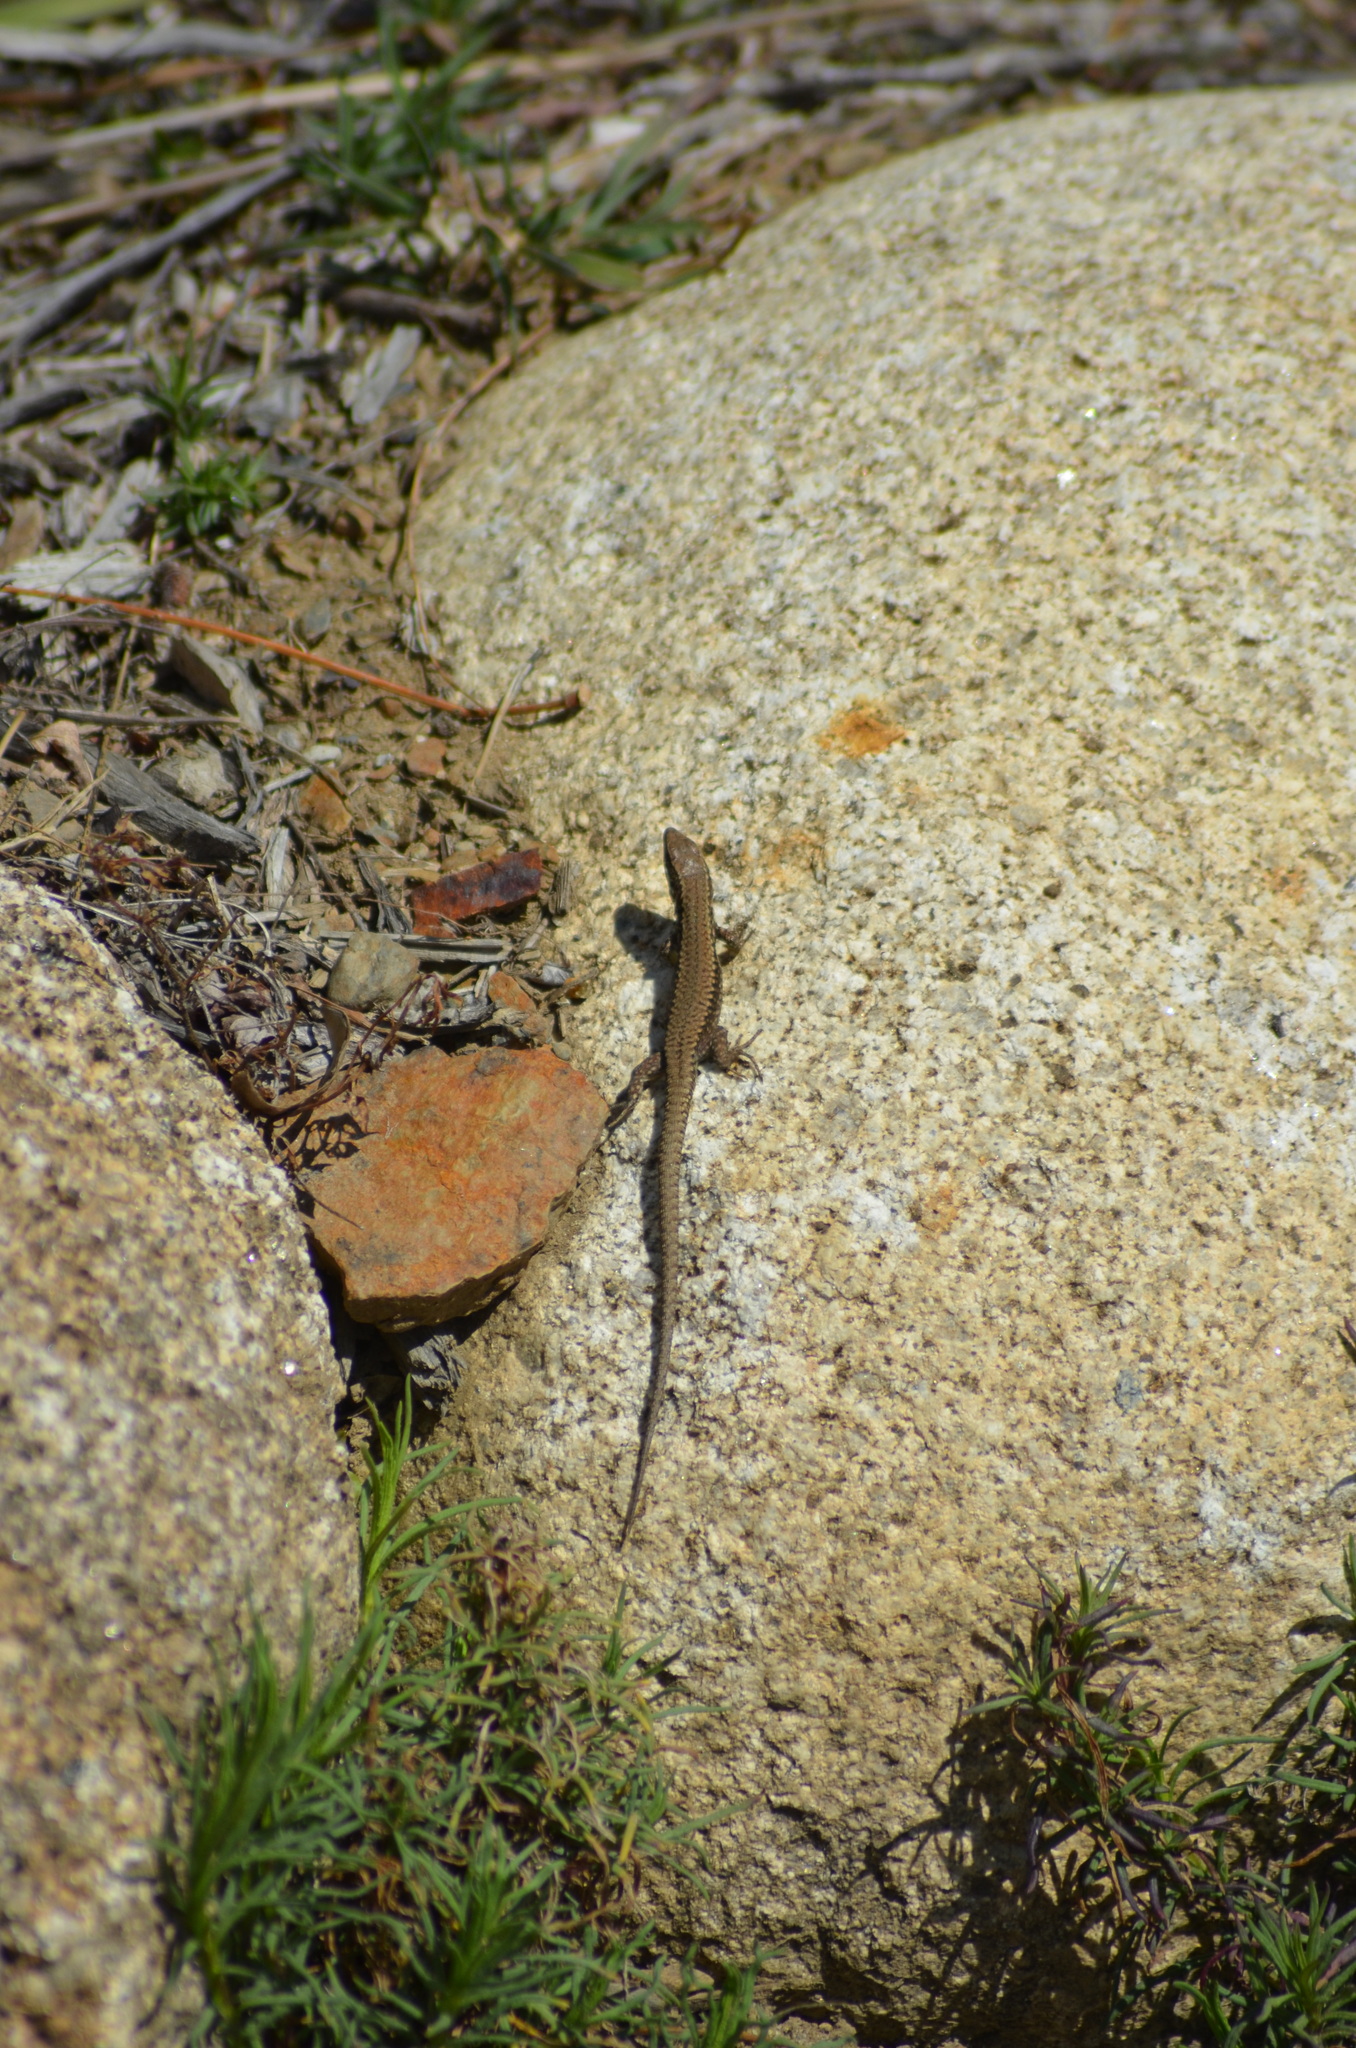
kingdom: Animalia
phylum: Chordata
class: Squamata
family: Lacertidae
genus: Podarcis
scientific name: Podarcis muralis
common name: Common wall lizard
